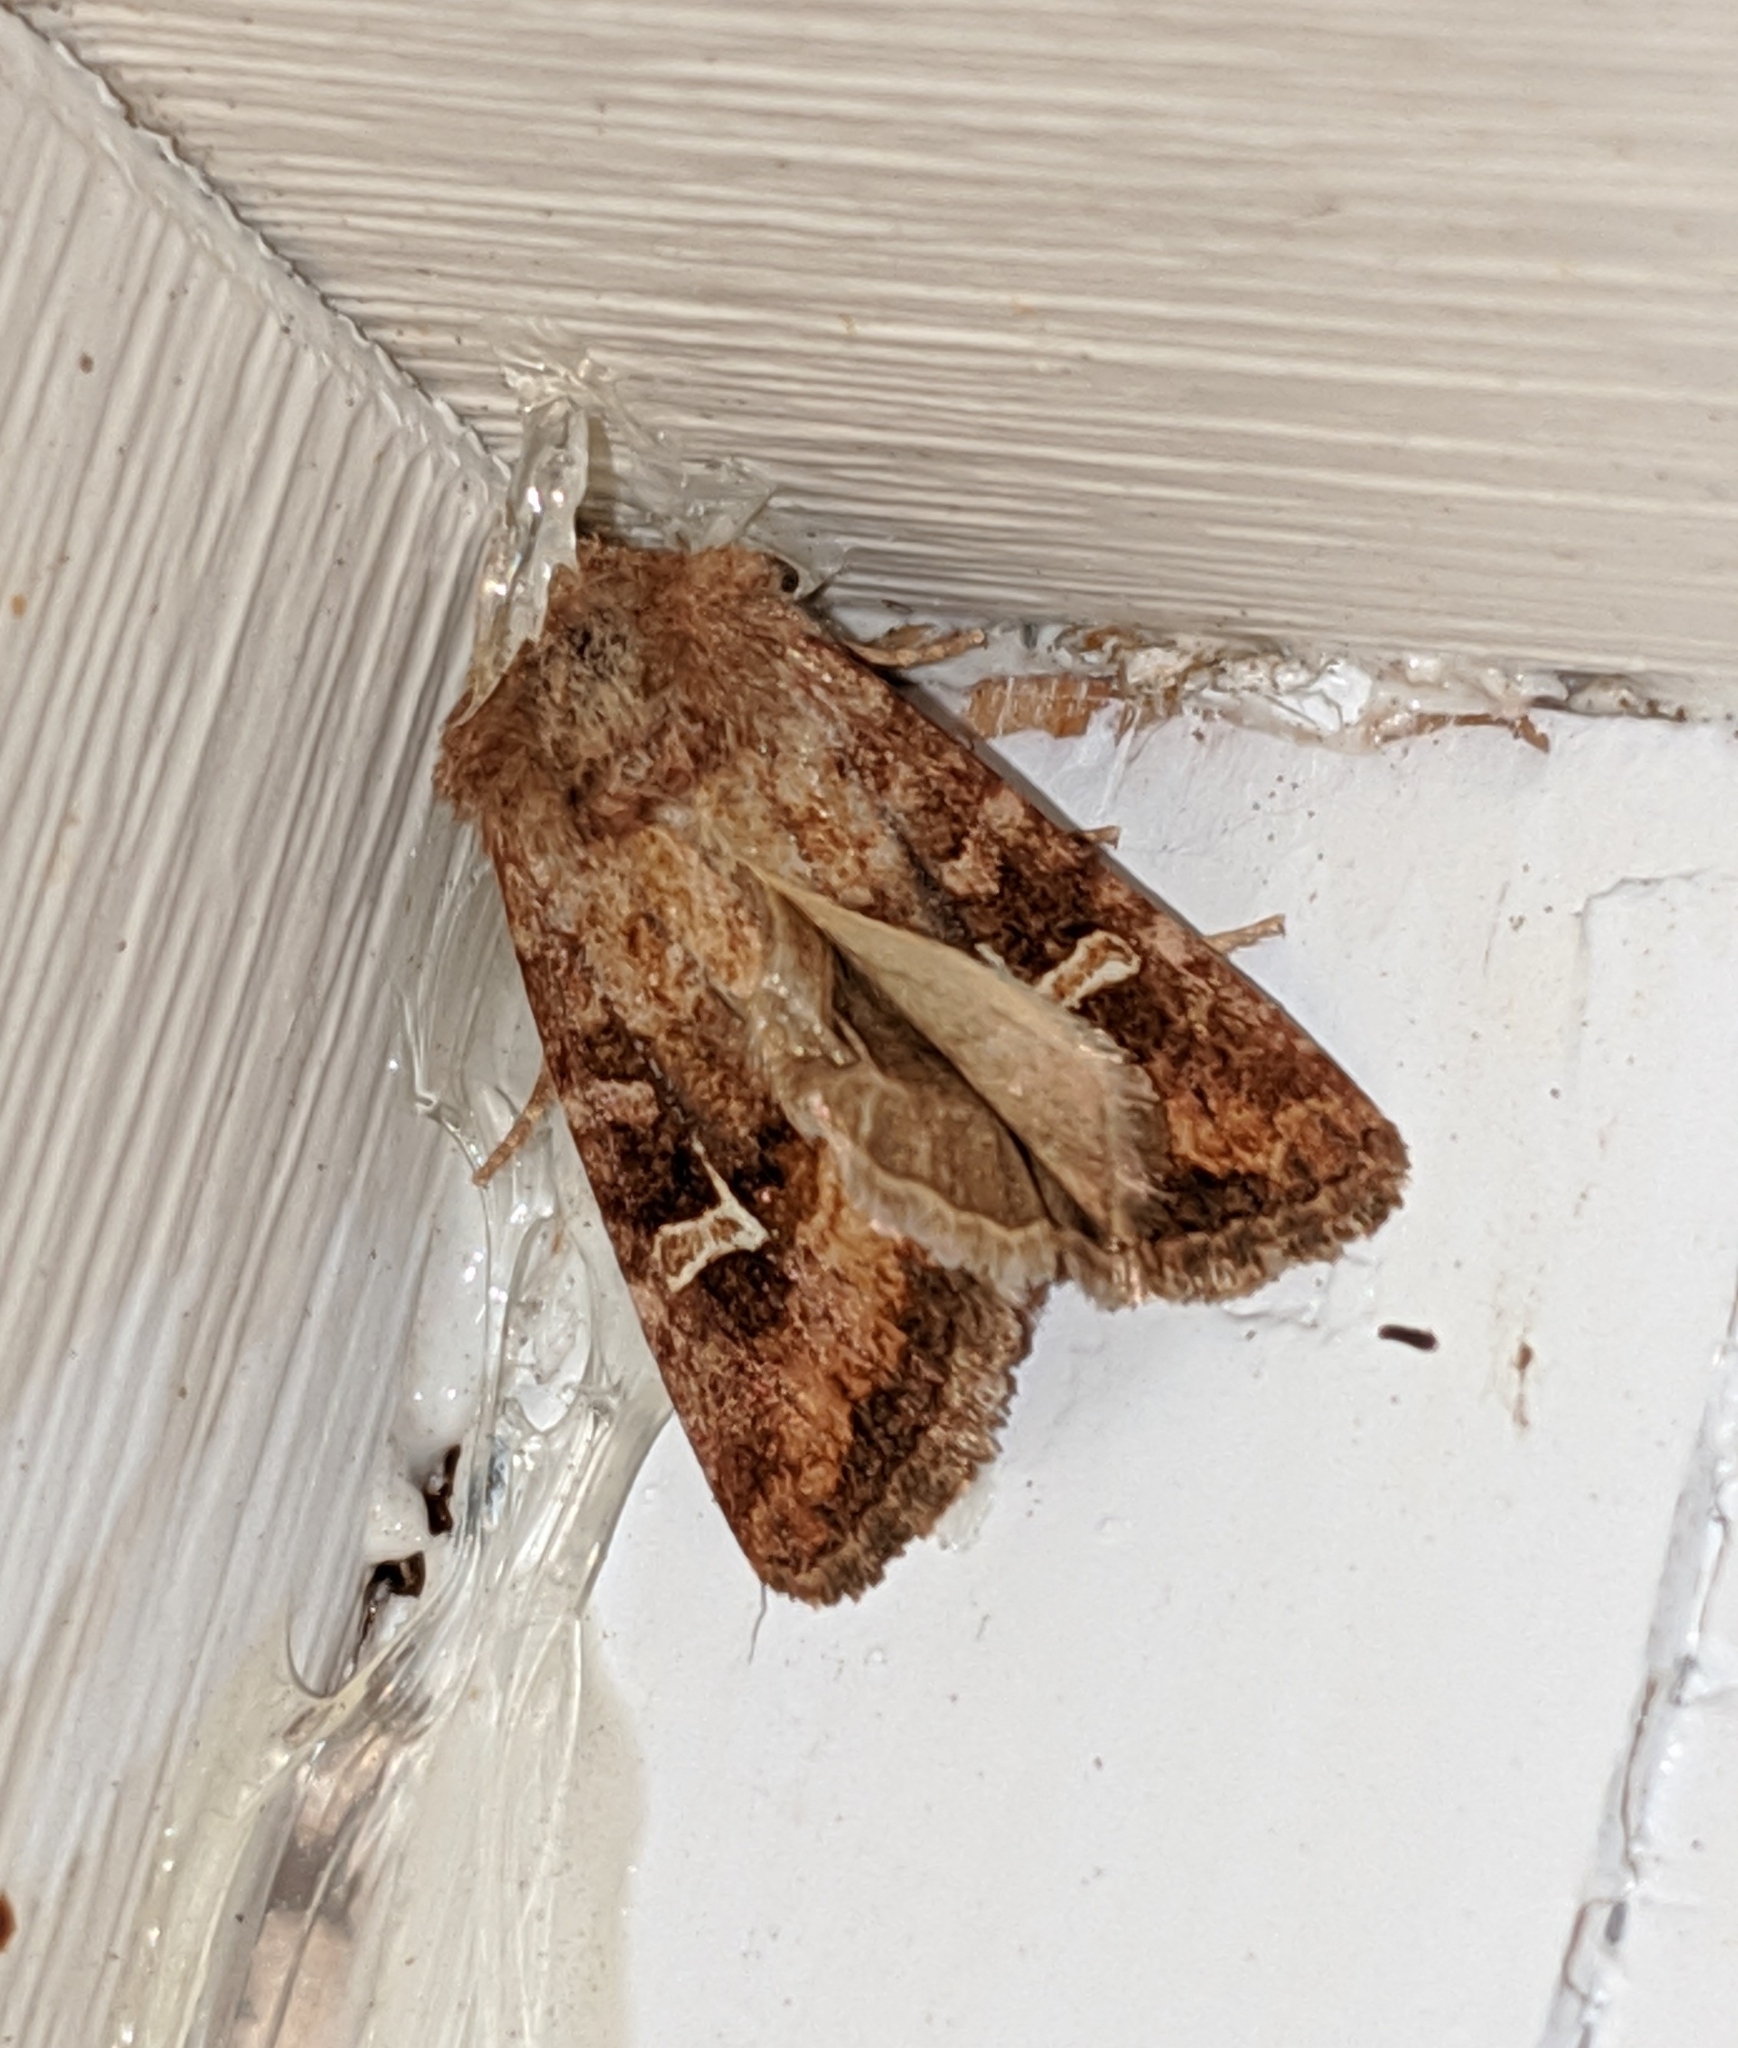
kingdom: Animalia
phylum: Arthropoda
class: Insecta
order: Lepidoptera
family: Noctuidae
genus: Lacinipolia
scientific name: Lacinipolia stricta
